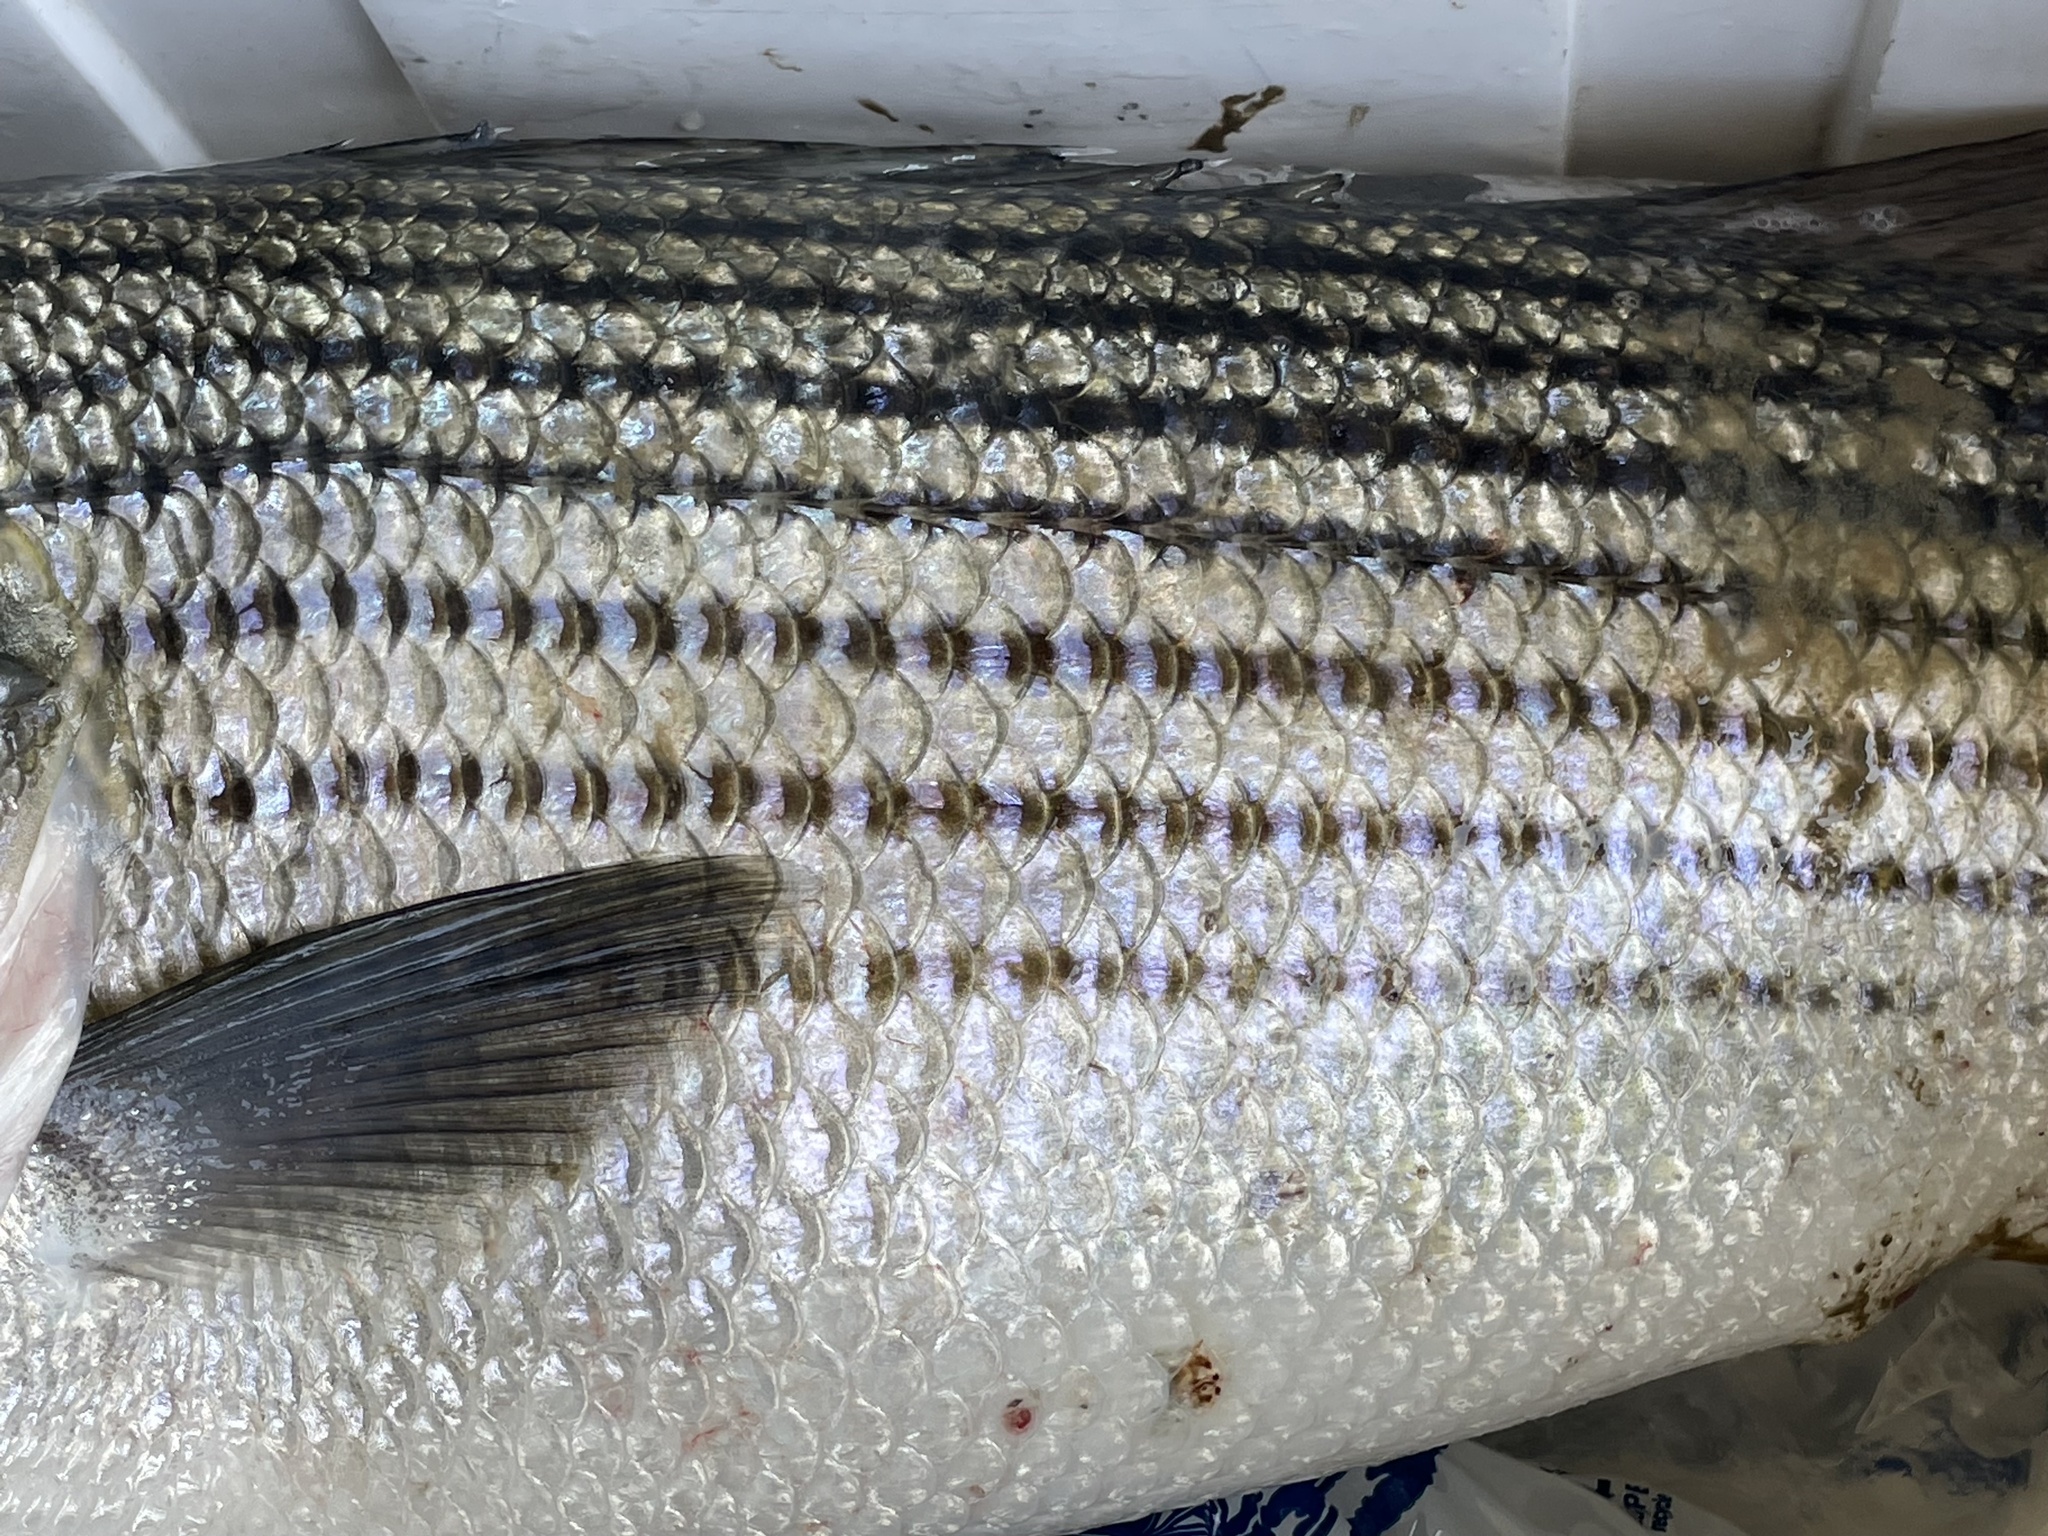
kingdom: Animalia
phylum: Chordata
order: Perciformes
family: Moronidae
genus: Morone
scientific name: Morone saxatilis
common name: Striped bass
